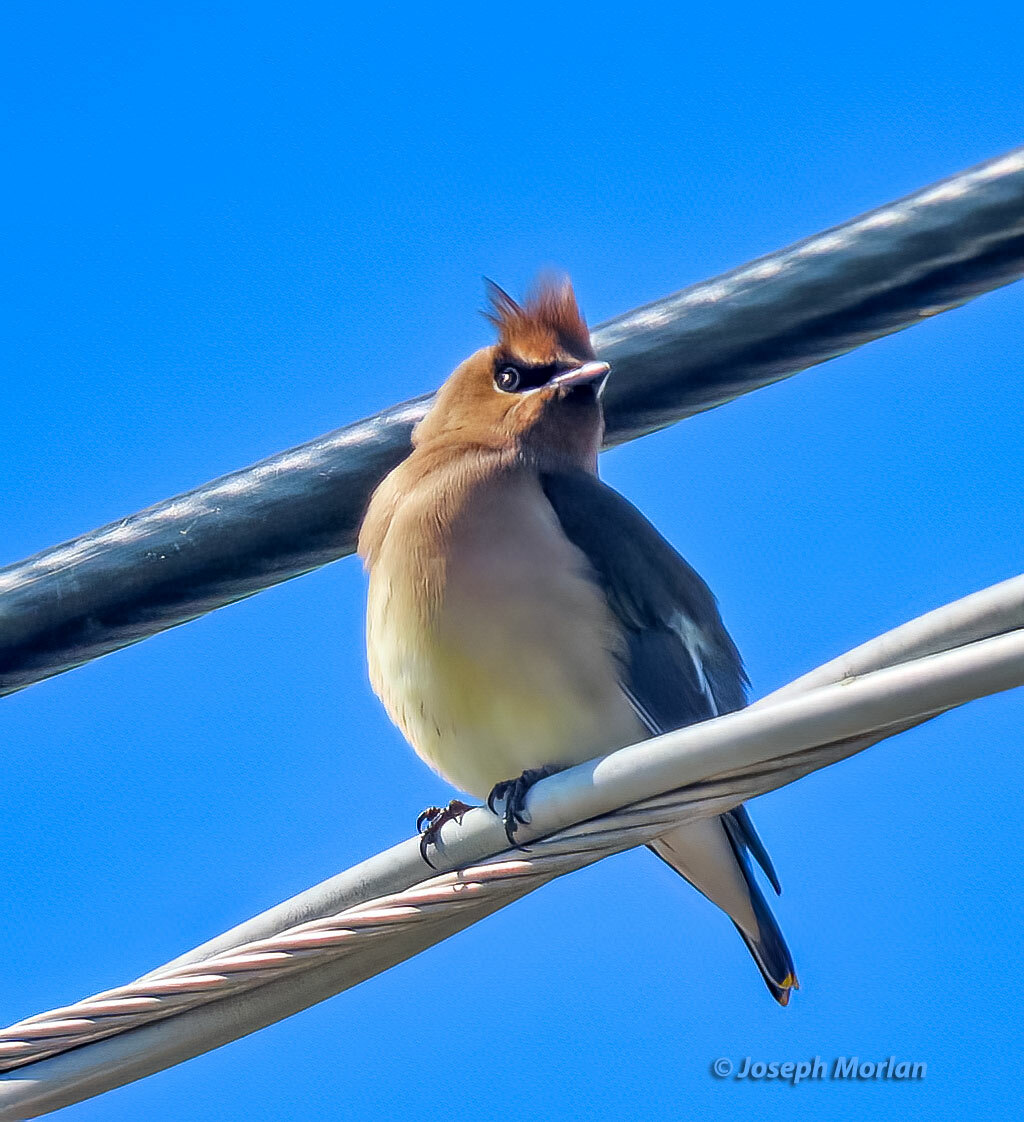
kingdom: Animalia
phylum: Chordata
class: Aves
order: Passeriformes
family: Bombycillidae
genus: Bombycilla
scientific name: Bombycilla cedrorum
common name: Cedar waxwing
